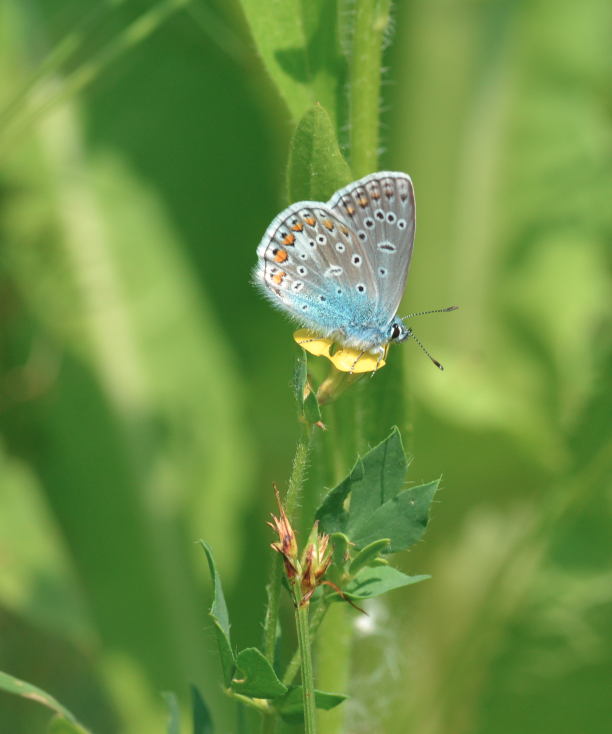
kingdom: Animalia
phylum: Arthropoda
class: Insecta
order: Lepidoptera
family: Lycaenidae
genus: Polyommatus
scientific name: Polyommatus icarus
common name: Common blue
